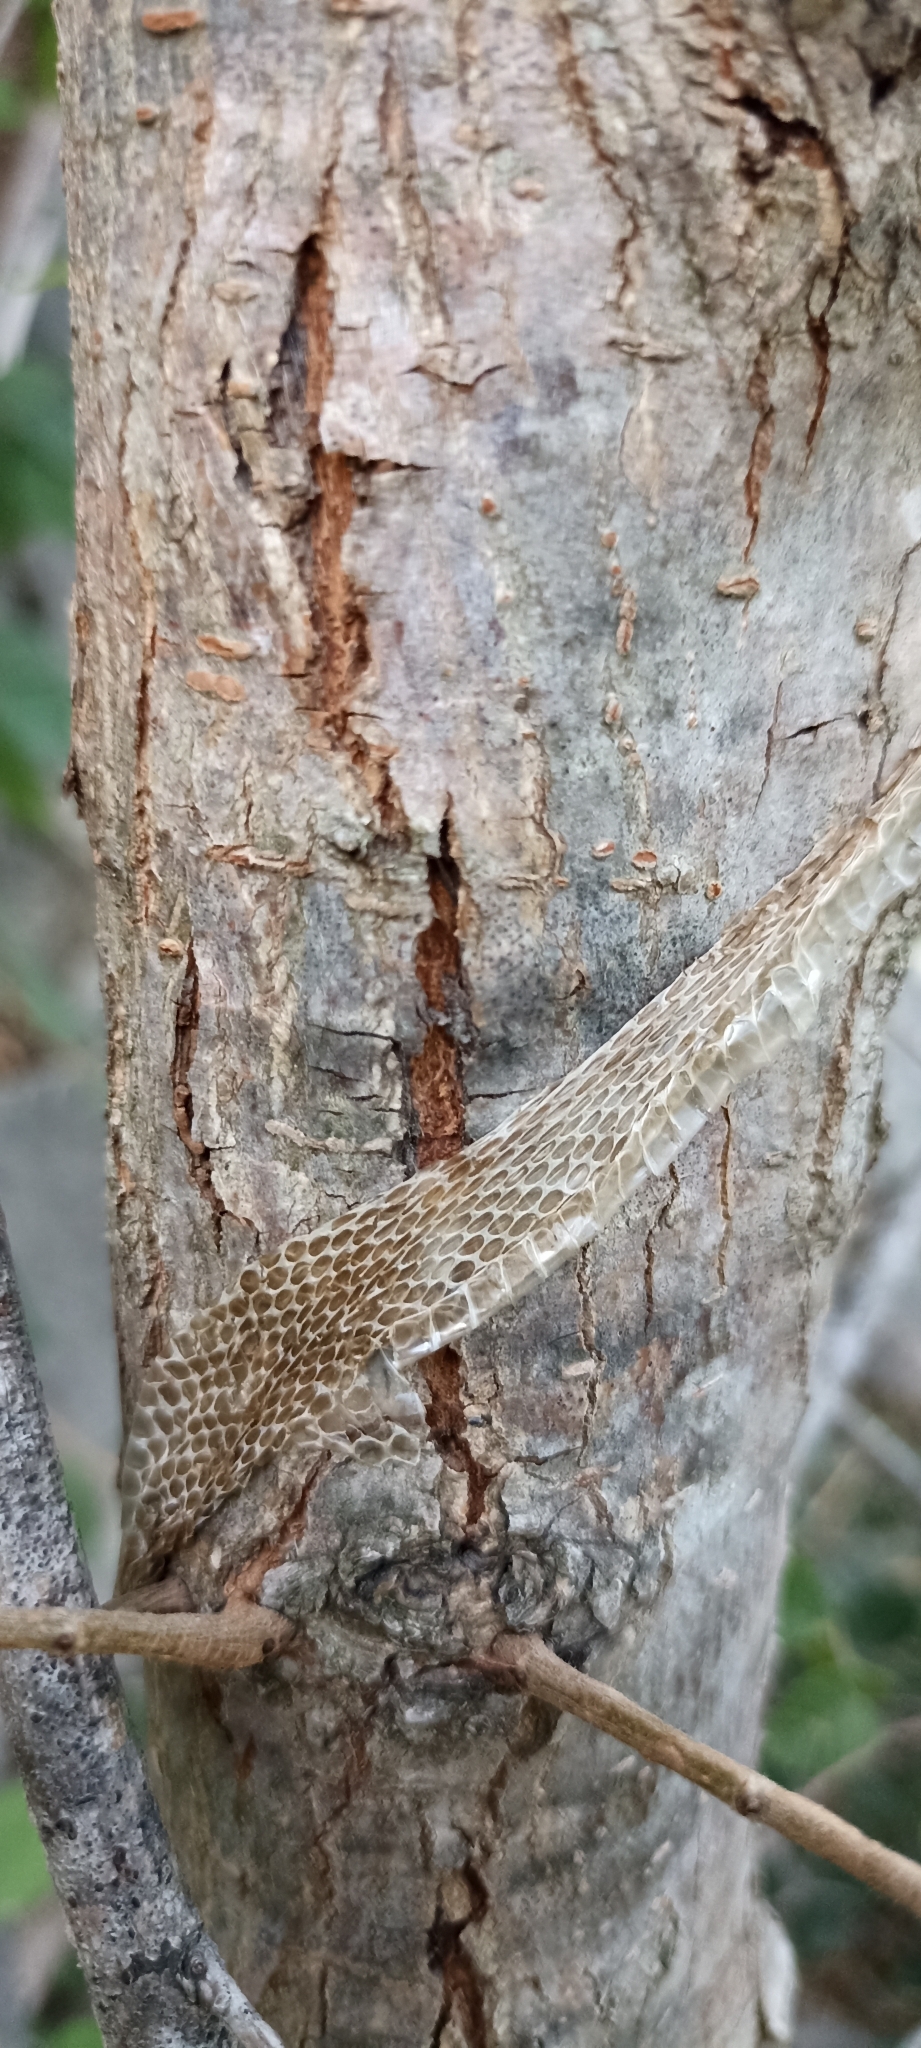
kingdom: Animalia
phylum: Chordata
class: Squamata
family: Colubridae
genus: Natrix
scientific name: Natrix maura
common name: Viperine water snake
